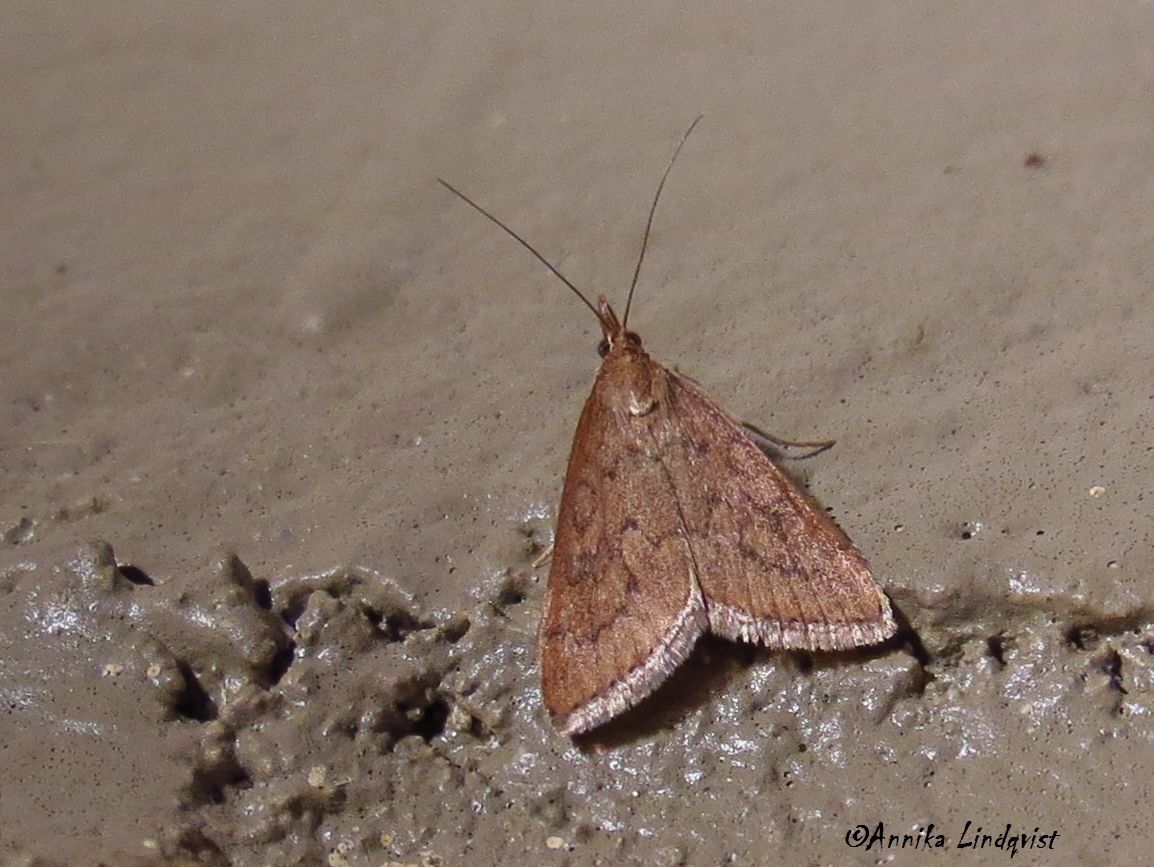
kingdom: Animalia
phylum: Arthropoda
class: Insecta
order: Lepidoptera
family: Crambidae
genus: Udea
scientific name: Udea rubigalis
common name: Celery leaftier moth
